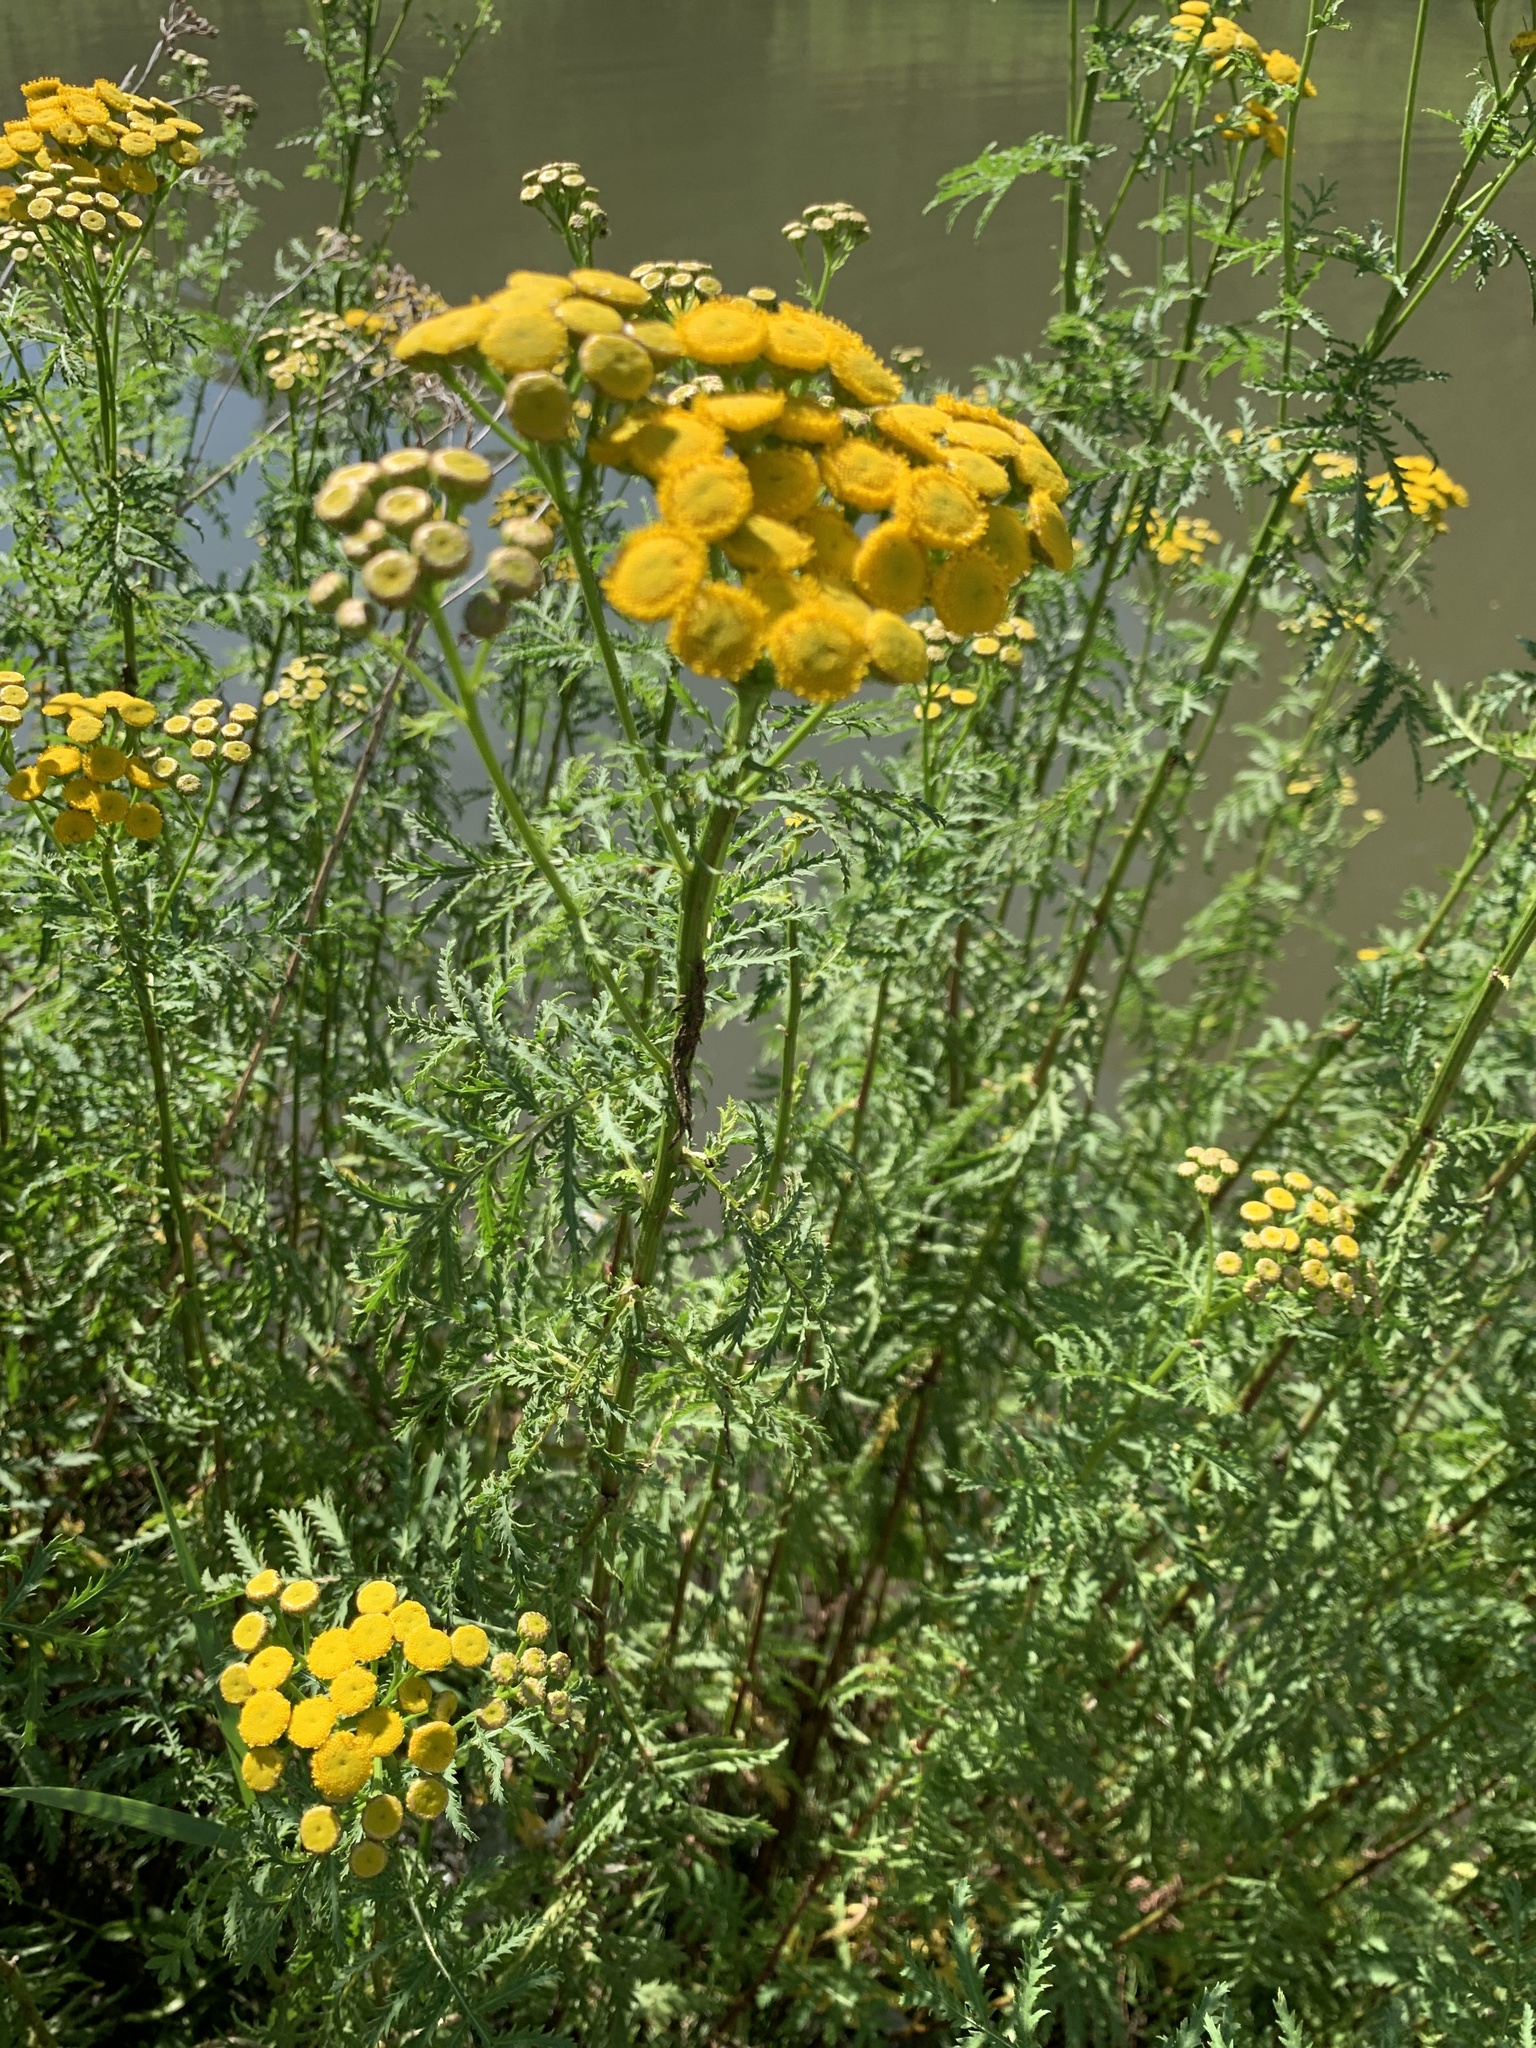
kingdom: Plantae
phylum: Tracheophyta
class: Magnoliopsida
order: Asterales
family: Asteraceae
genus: Tanacetum
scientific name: Tanacetum vulgare
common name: Common tansy
